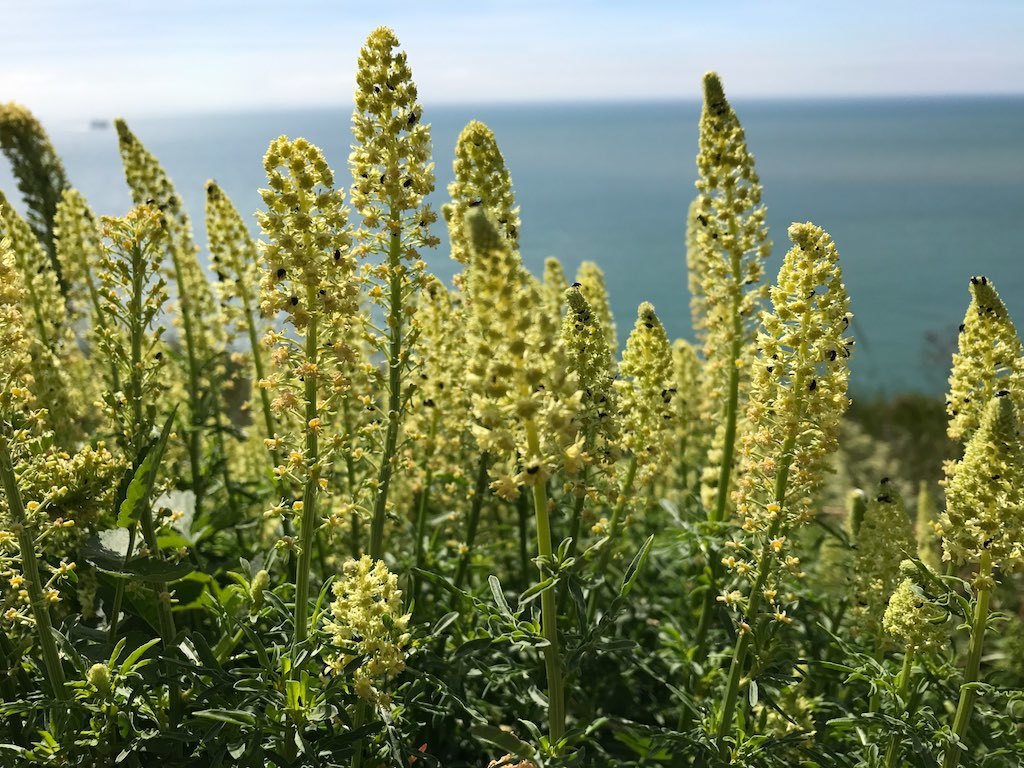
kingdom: Plantae
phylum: Tracheophyta
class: Magnoliopsida
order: Brassicales
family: Resedaceae
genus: Reseda
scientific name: Reseda lutea
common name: Wild mignonette
